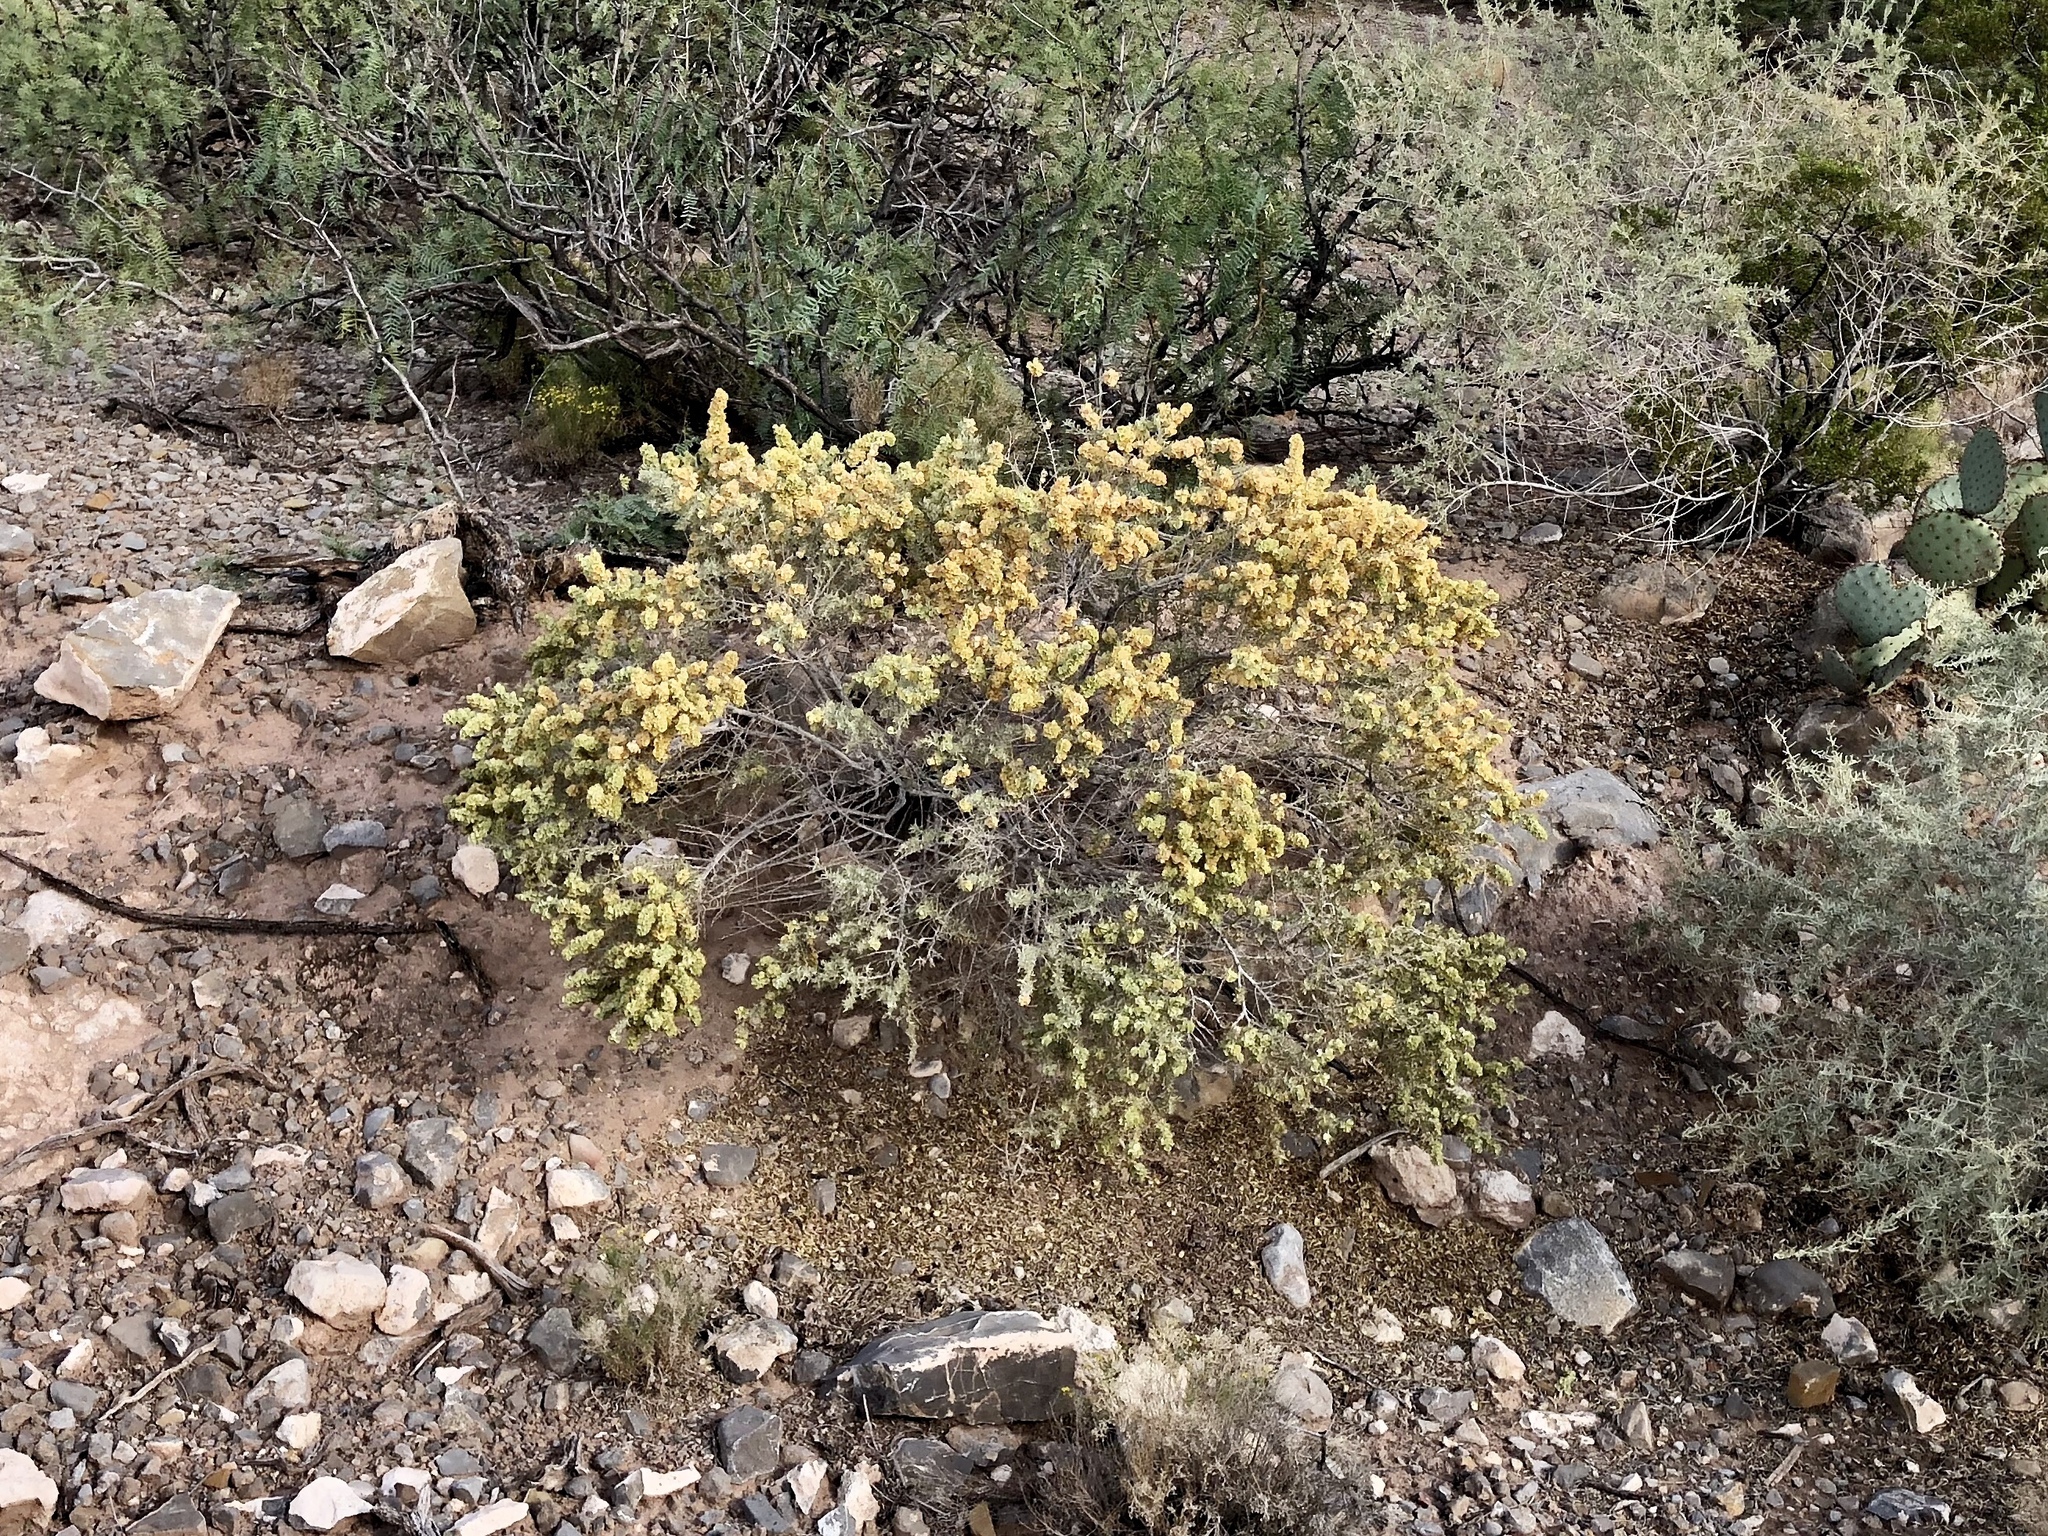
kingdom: Plantae
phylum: Tracheophyta
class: Magnoliopsida
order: Caryophyllales
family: Amaranthaceae
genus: Atriplex
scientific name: Atriplex canescens
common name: Four-wing saltbush
